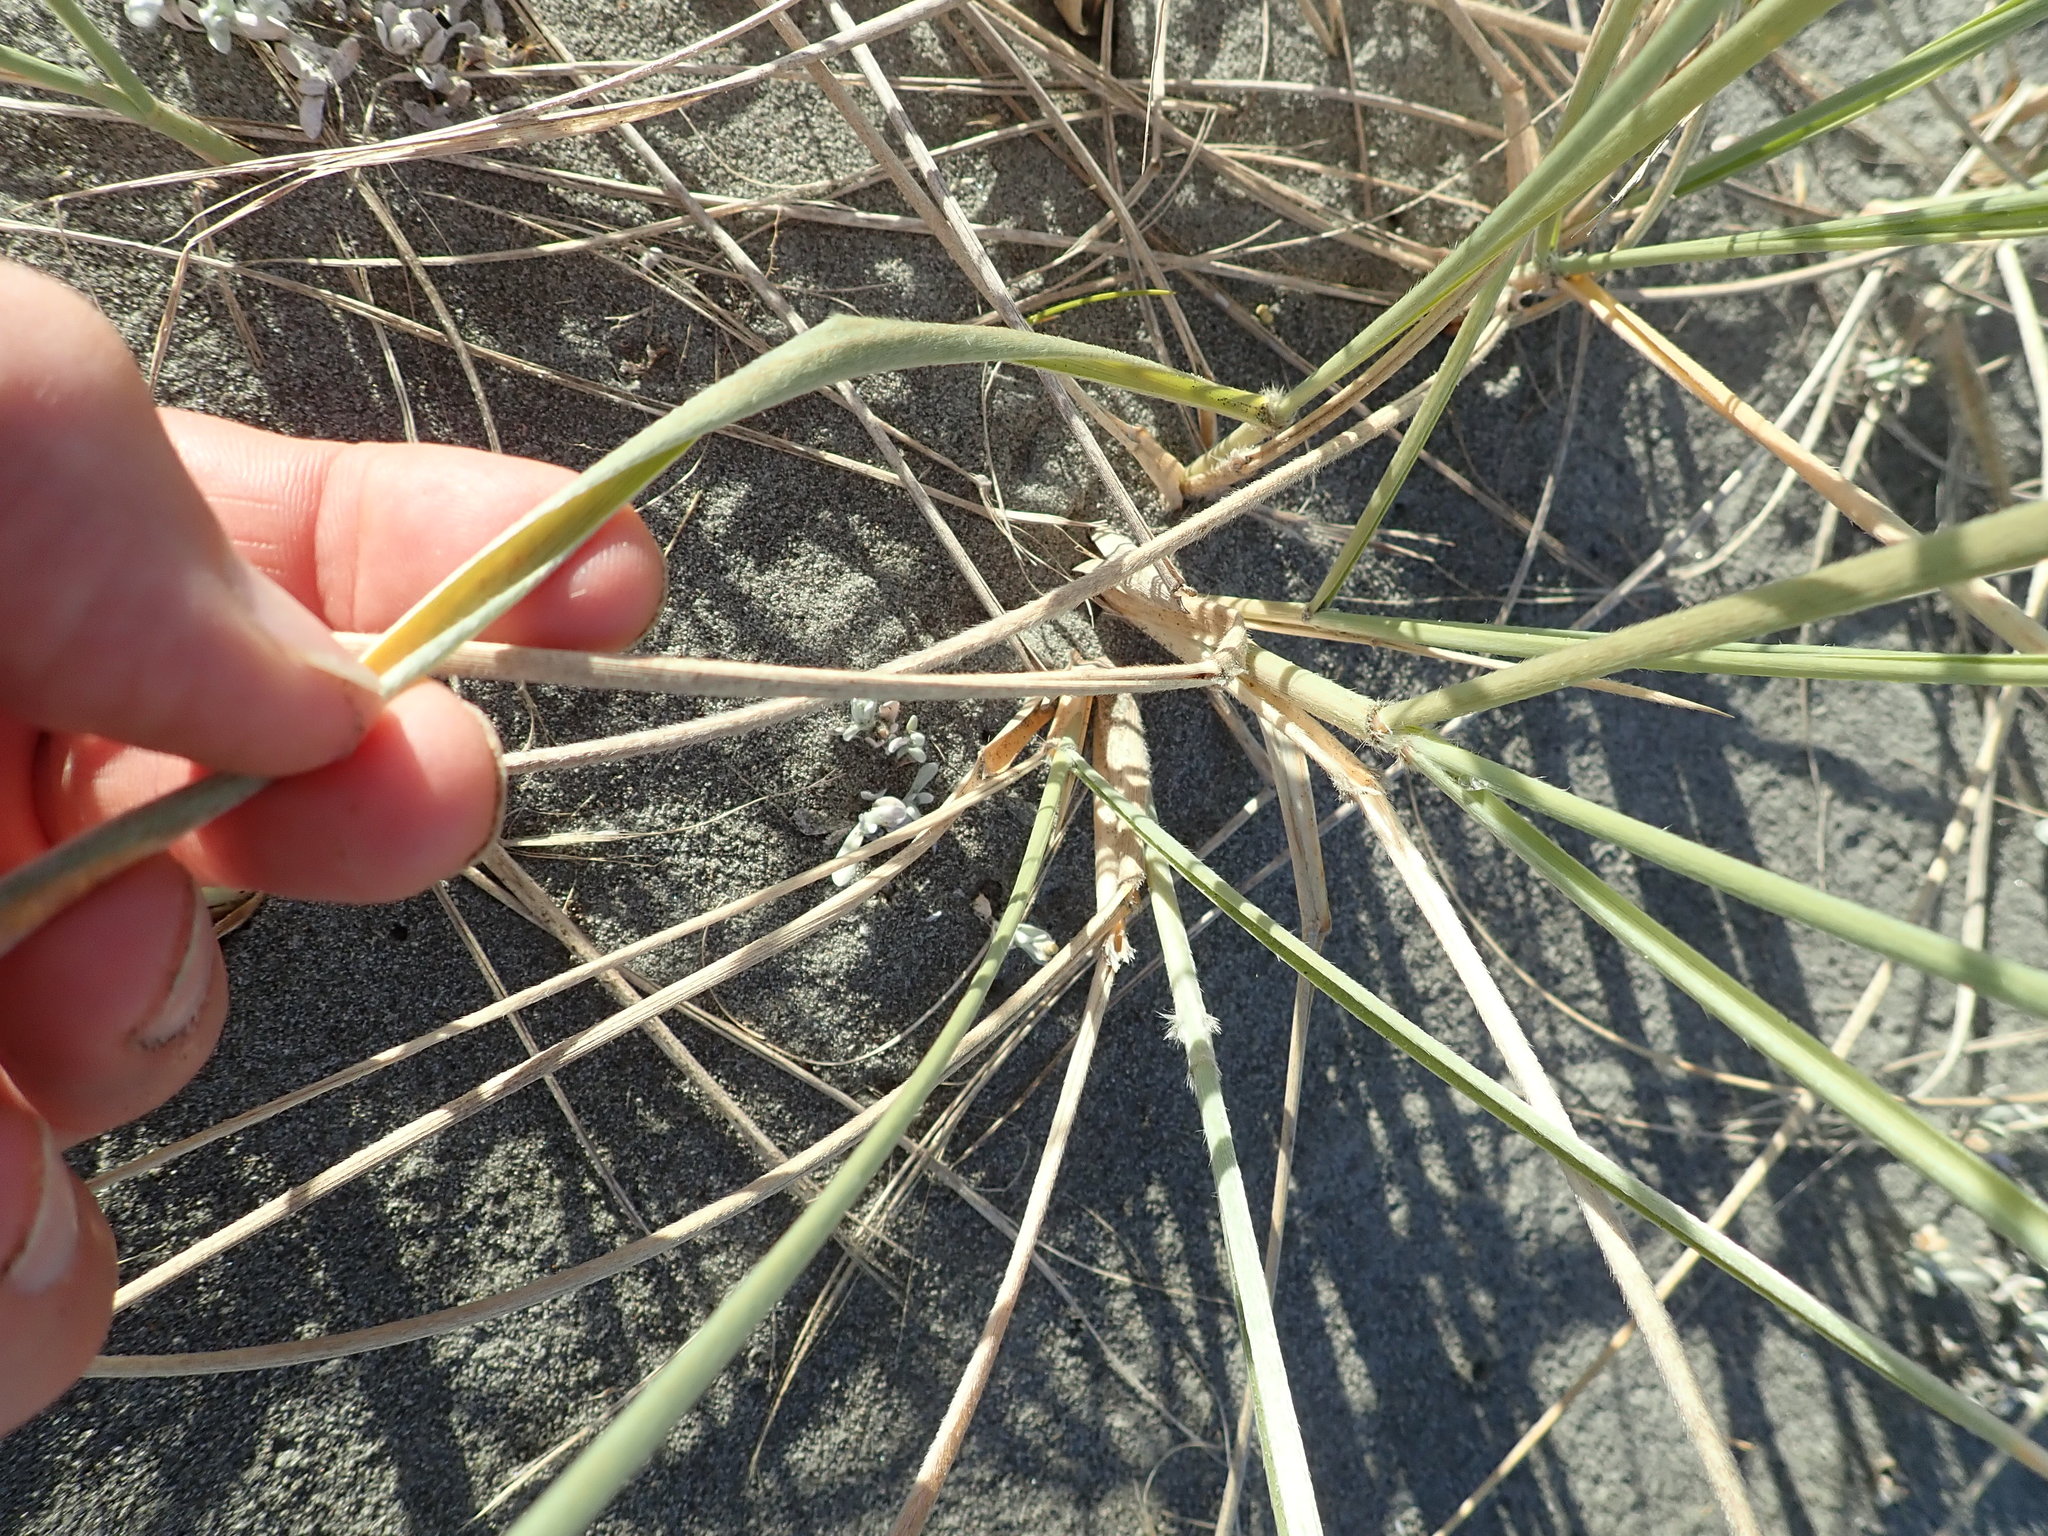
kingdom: Plantae
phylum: Tracheophyta
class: Liliopsida
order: Poales
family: Poaceae
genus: Spinifex
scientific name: Spinifex sericeus
